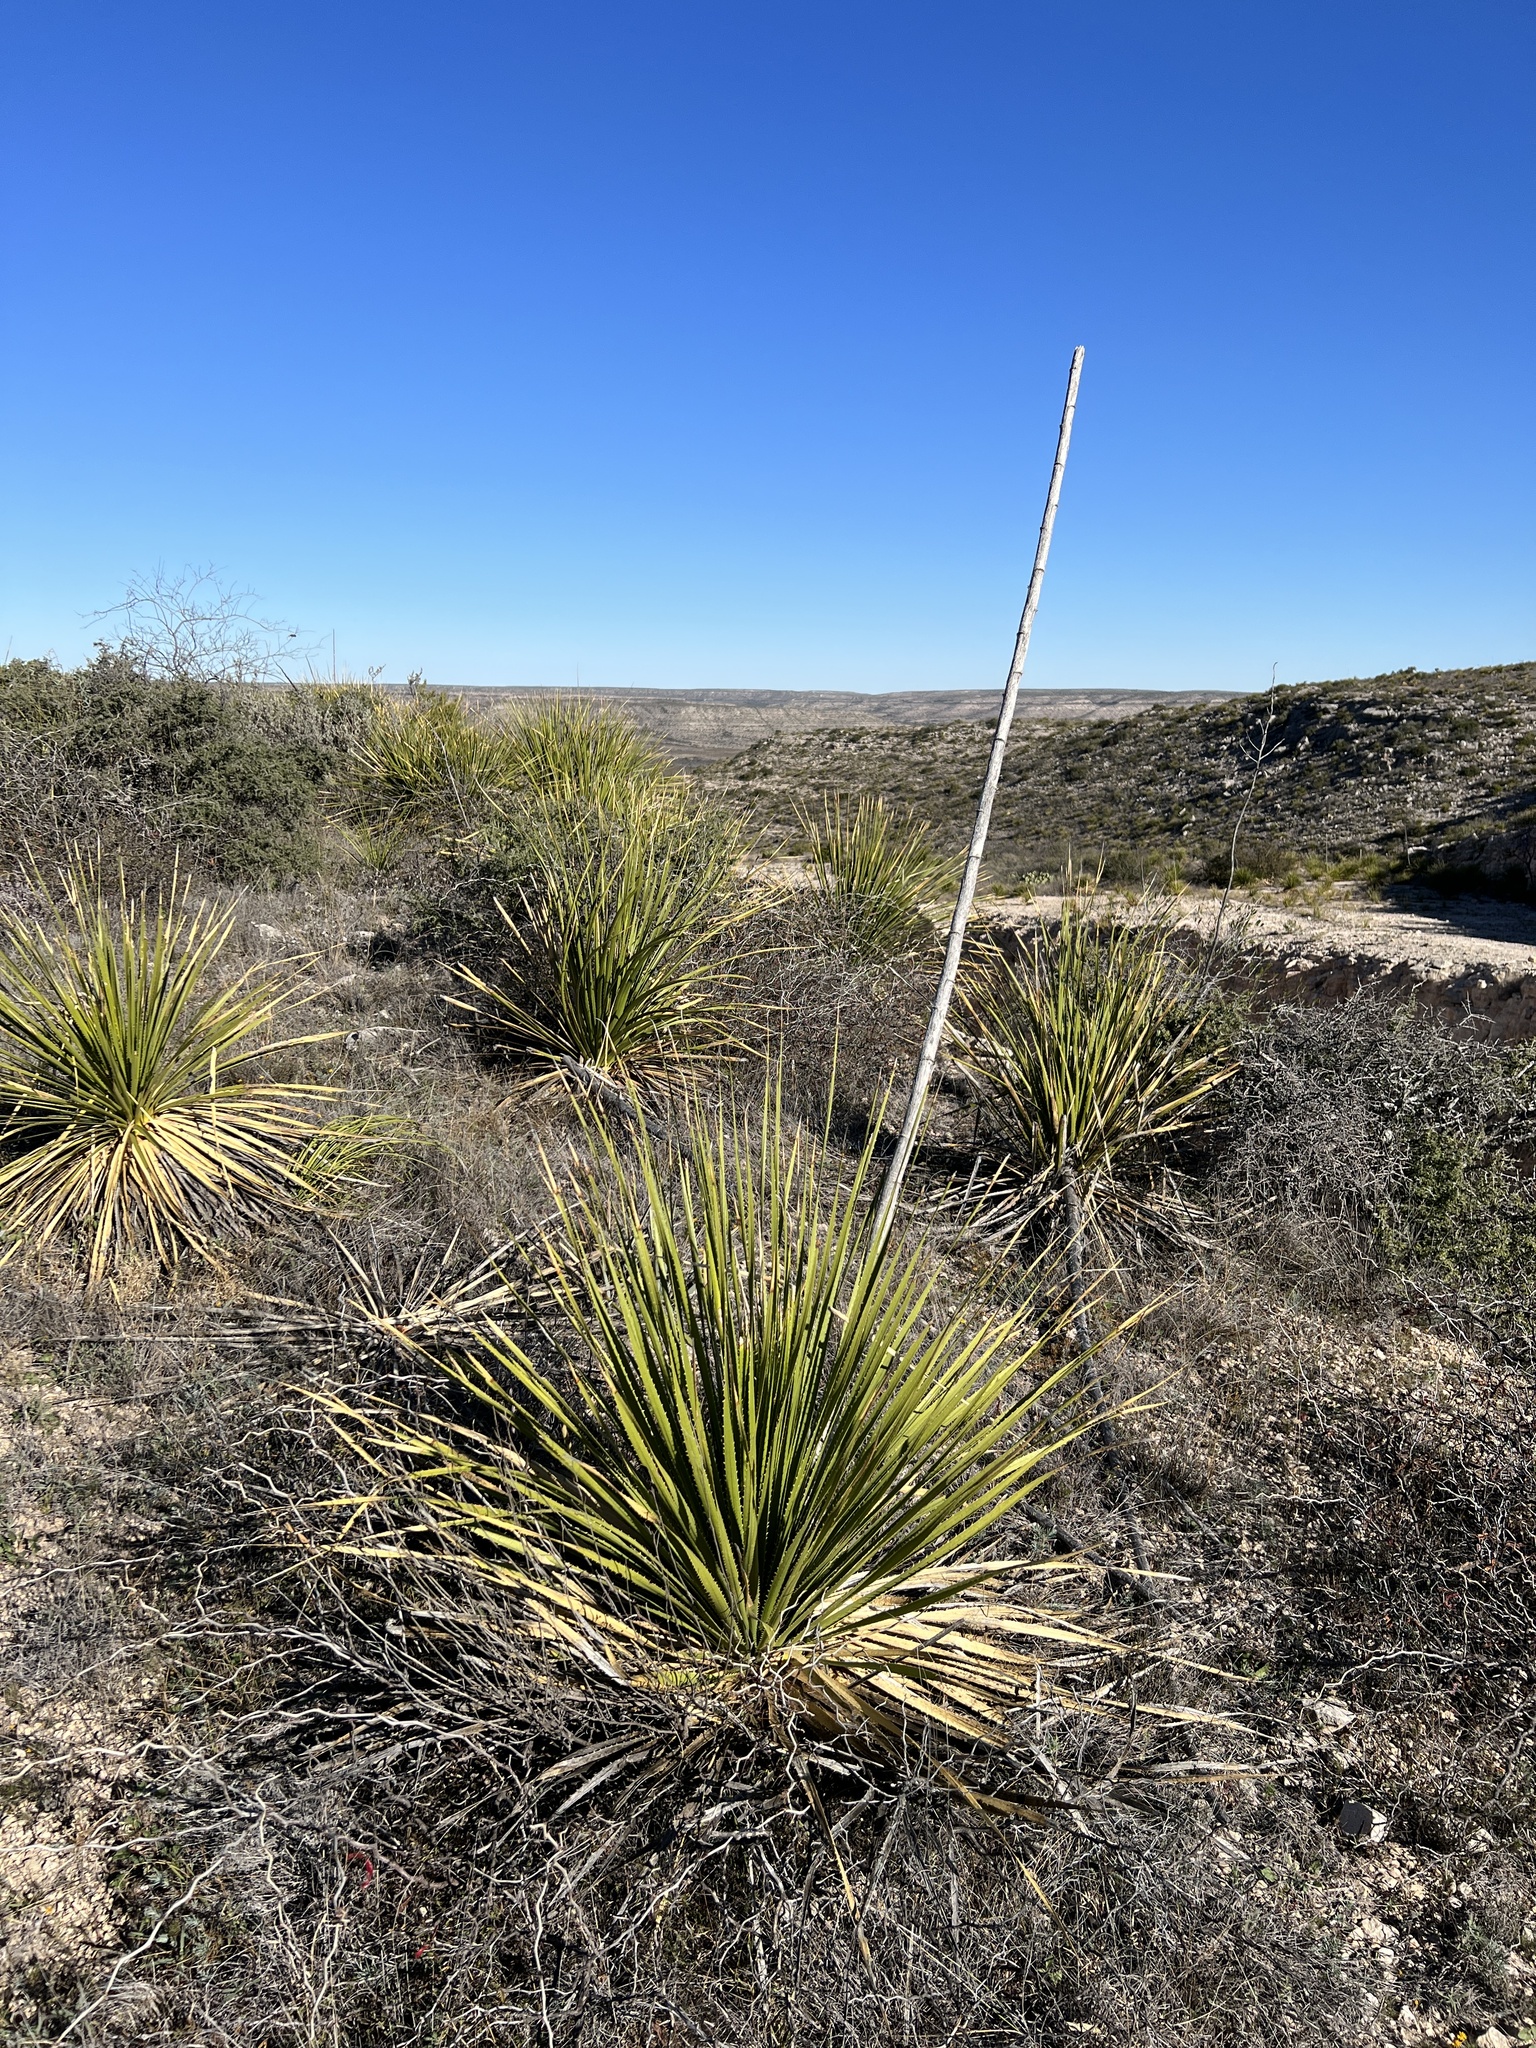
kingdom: Plantae
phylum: Tracheophyta
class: Liliopsida
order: Asparagales
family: Asparagaceae
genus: Dasylirion
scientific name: Dasylirion texanum
